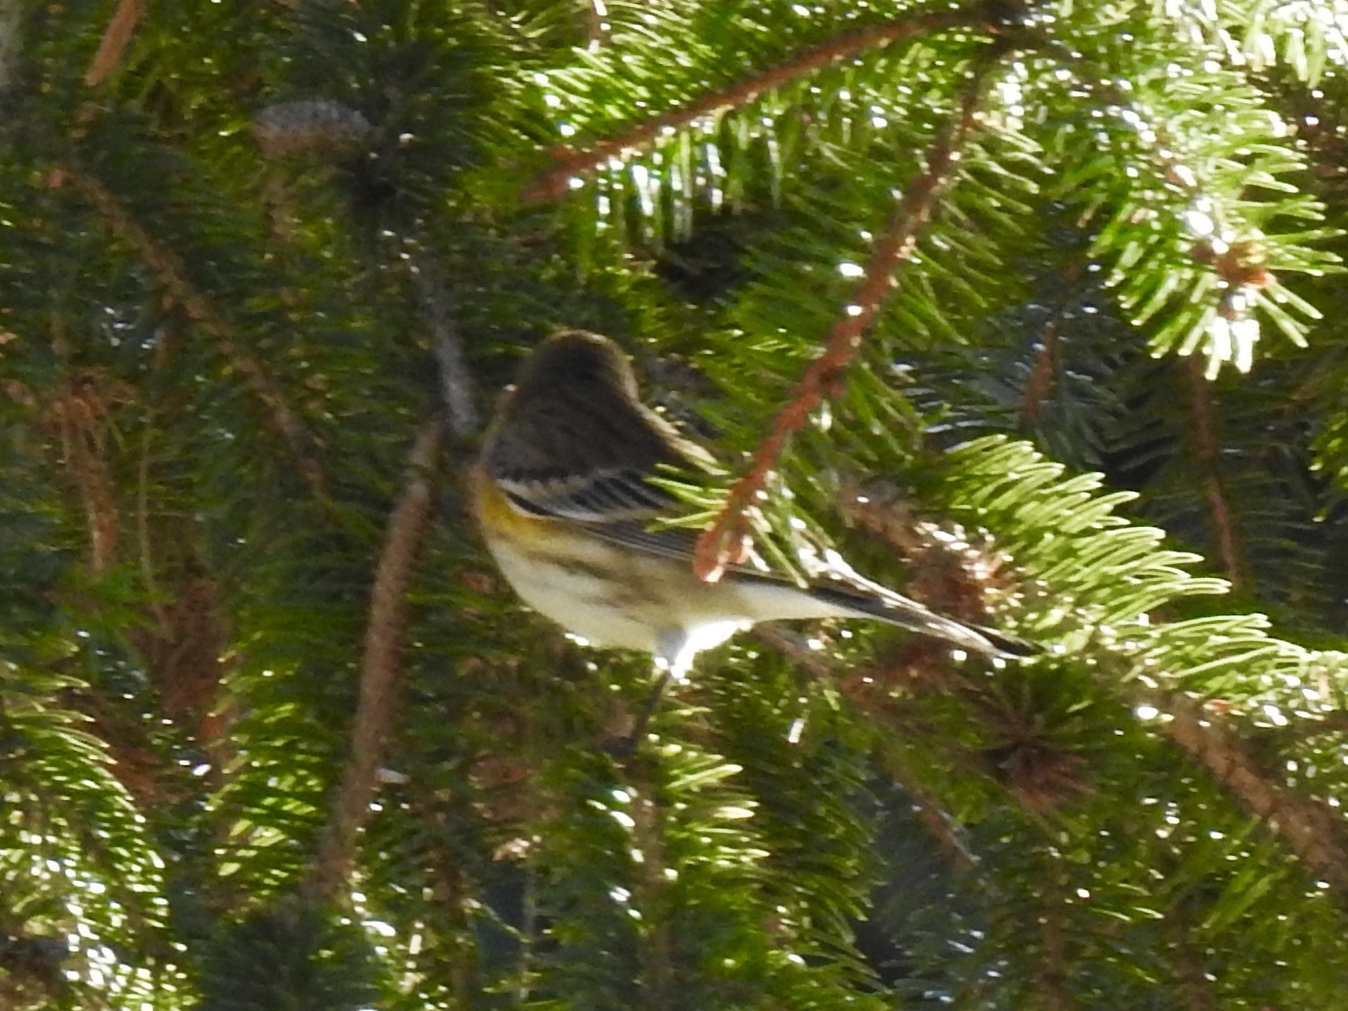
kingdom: Animalia
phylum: Chordata
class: Aves
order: Passeriformes
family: Parulidae
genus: Setophaga
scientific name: Setophaga coronata
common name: Myrtle warbler
